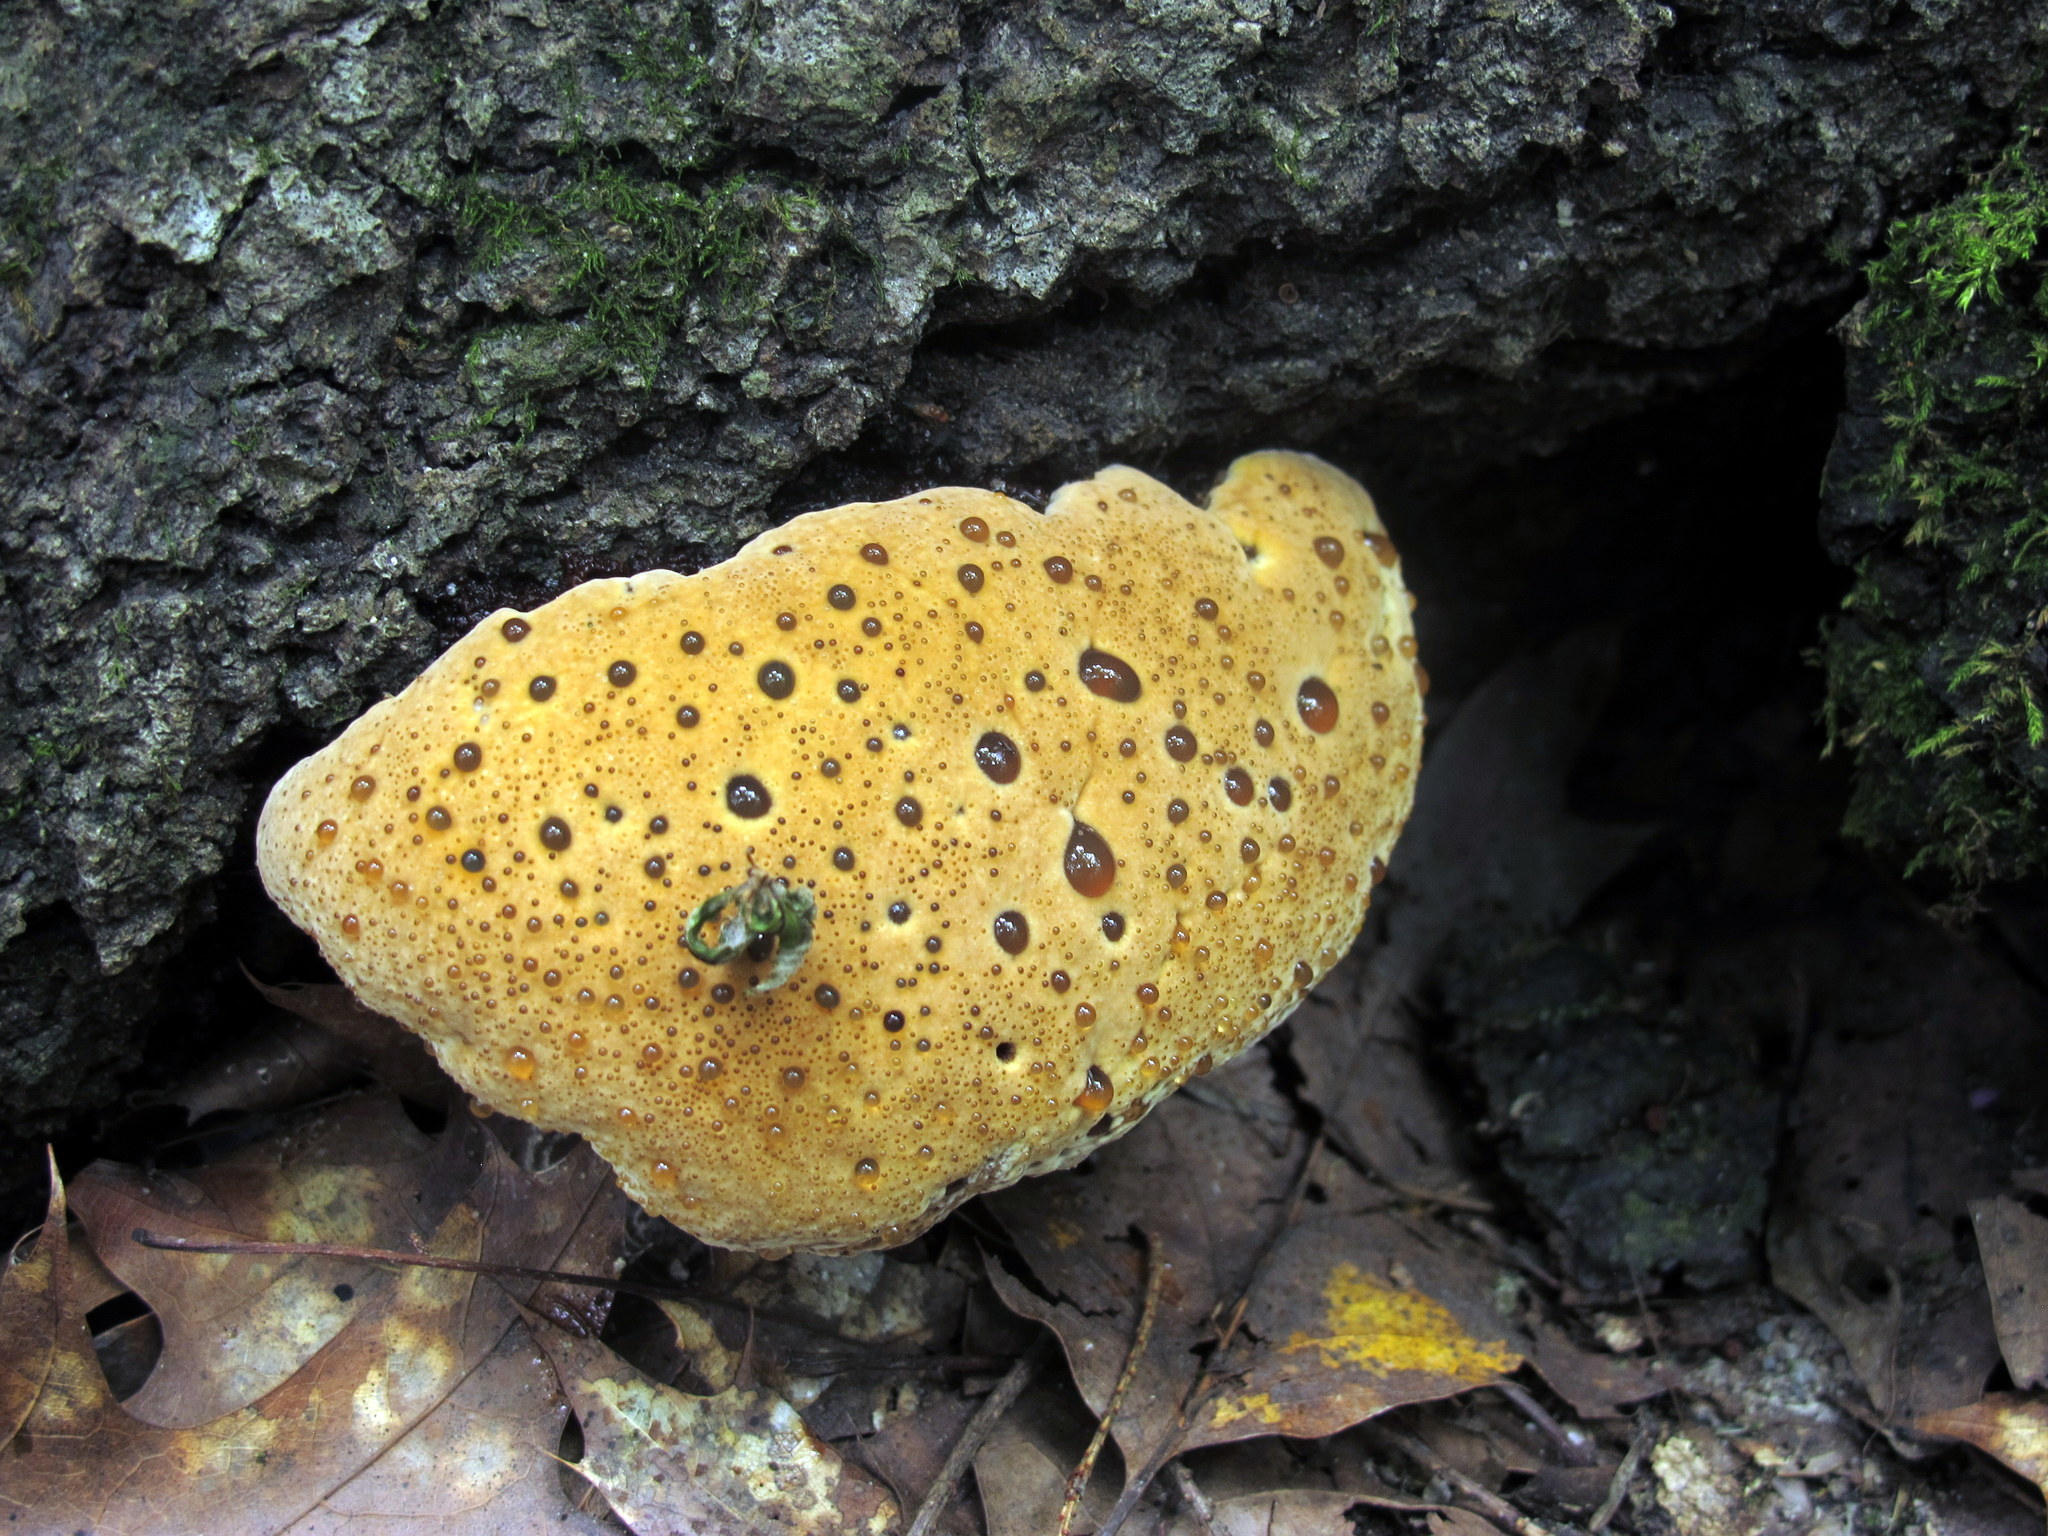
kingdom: Fungi
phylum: Basidiomycota
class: Agaricomycetes
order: Hymenochaetales
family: Hymenochaetaceae
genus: Pseudoinonotus
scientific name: Pseudoinonotus dryadeus
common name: Oak bracket
